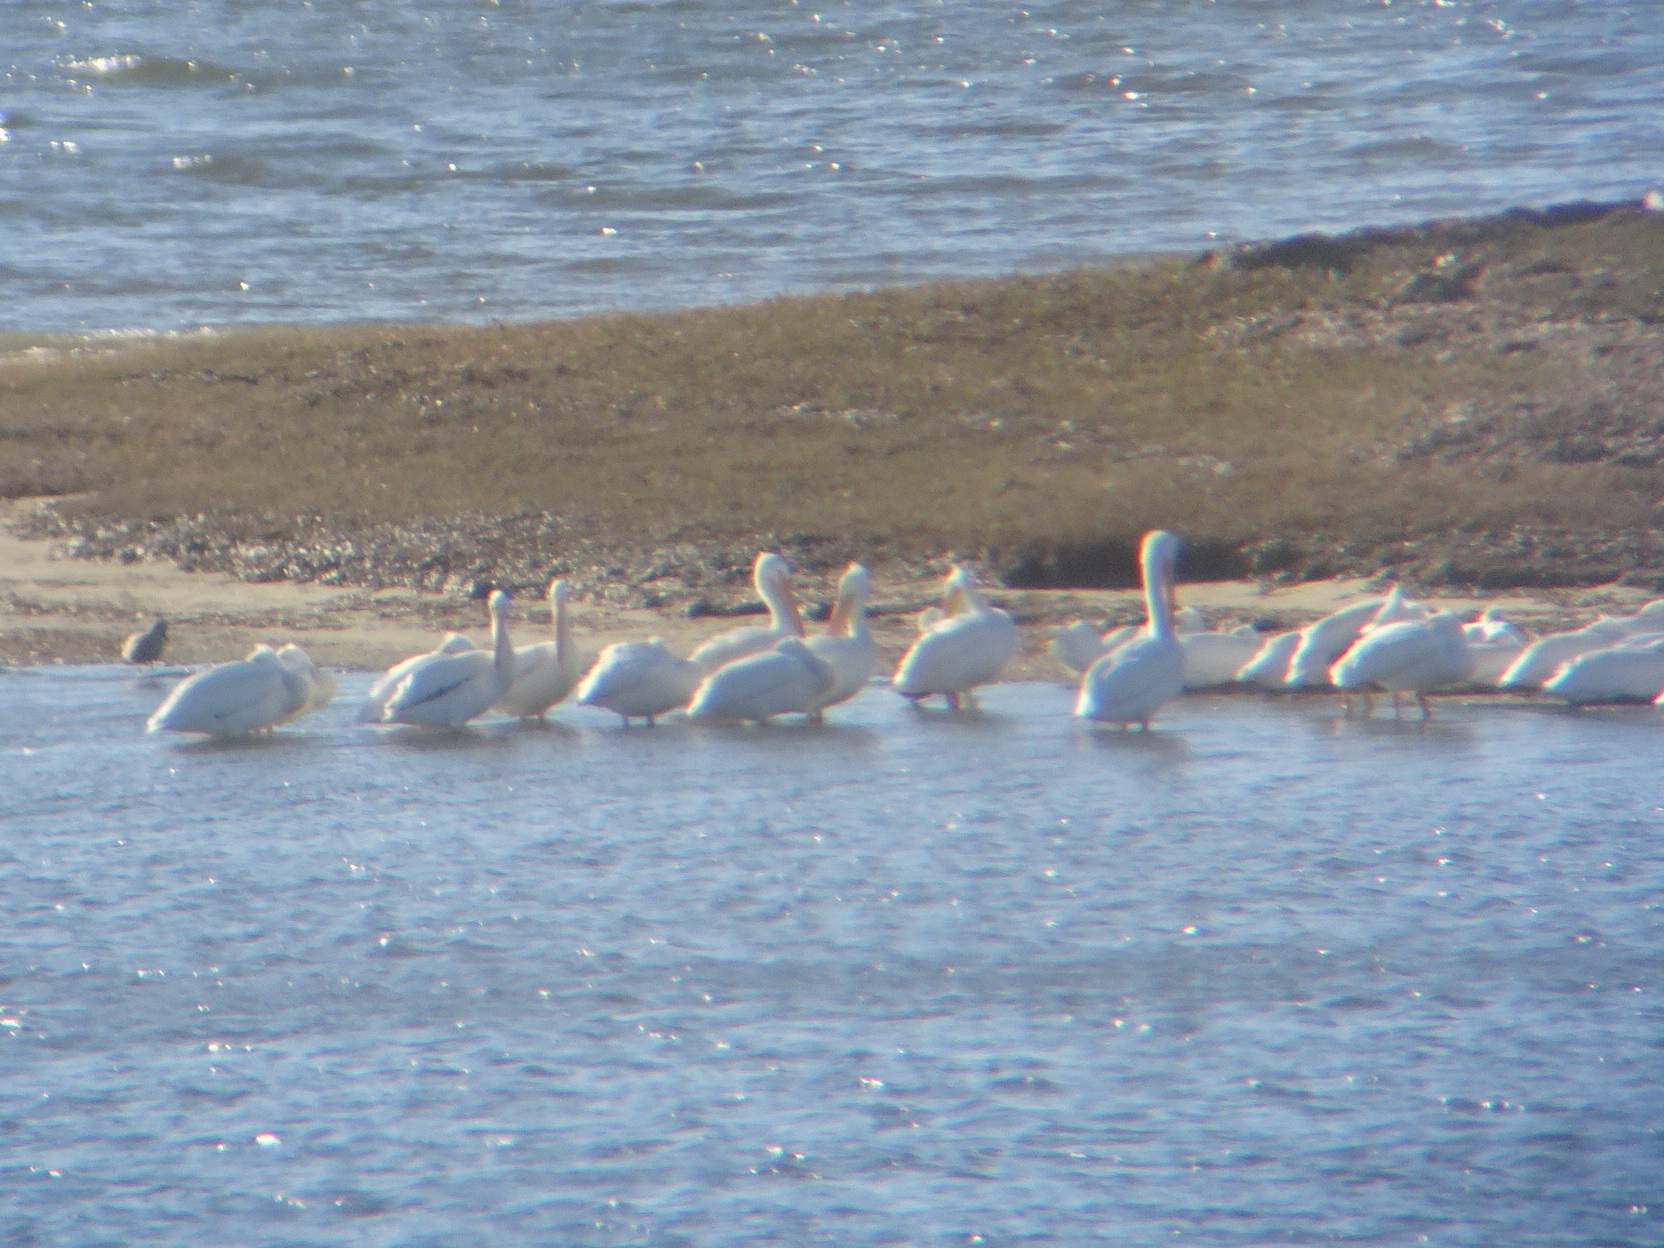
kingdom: Animalia
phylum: Chordata
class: Aves
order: Pelecaniformes
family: Pelecanidae
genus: Pelecanus
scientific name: Pelecanus erythrorhynchos
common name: American white pelican
